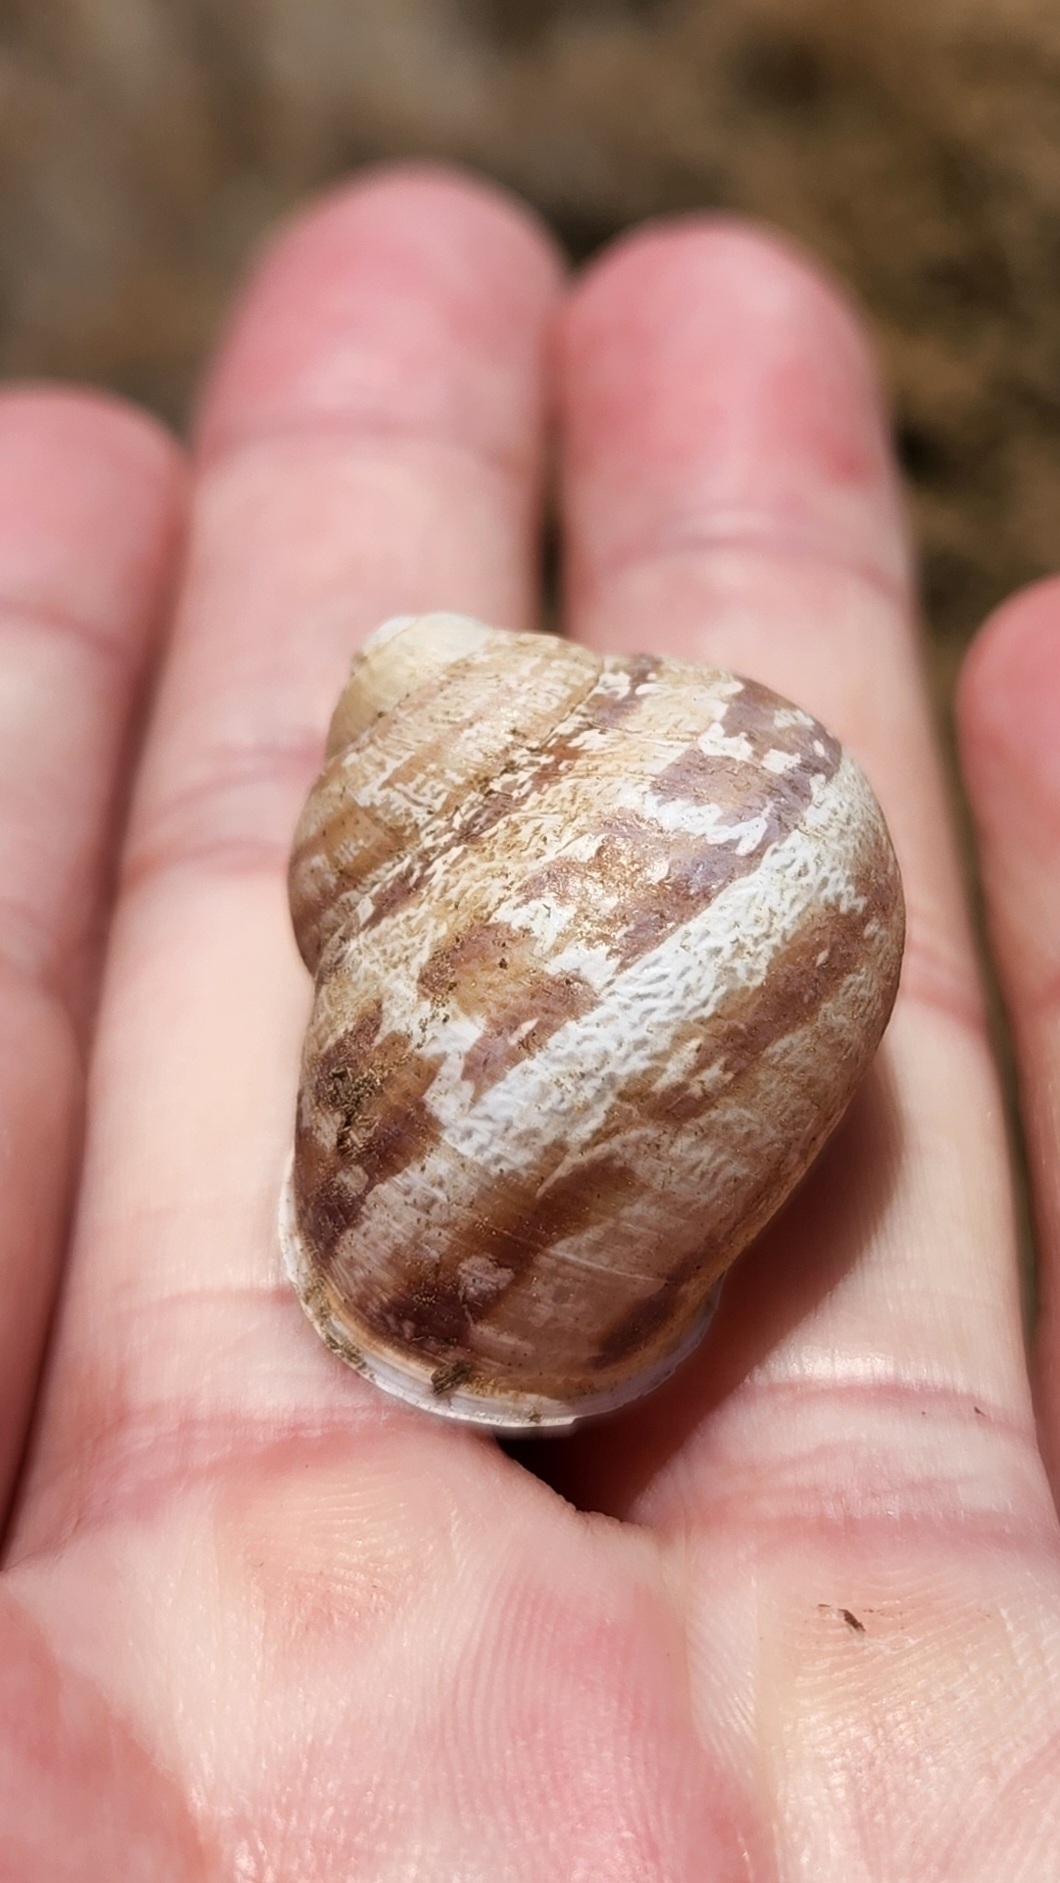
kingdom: Animalia
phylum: Mollusca
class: Gastropoda
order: Stylommatophora
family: Helicidae
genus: Cornu
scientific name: Cornu aspersum
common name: Brown garden snail
